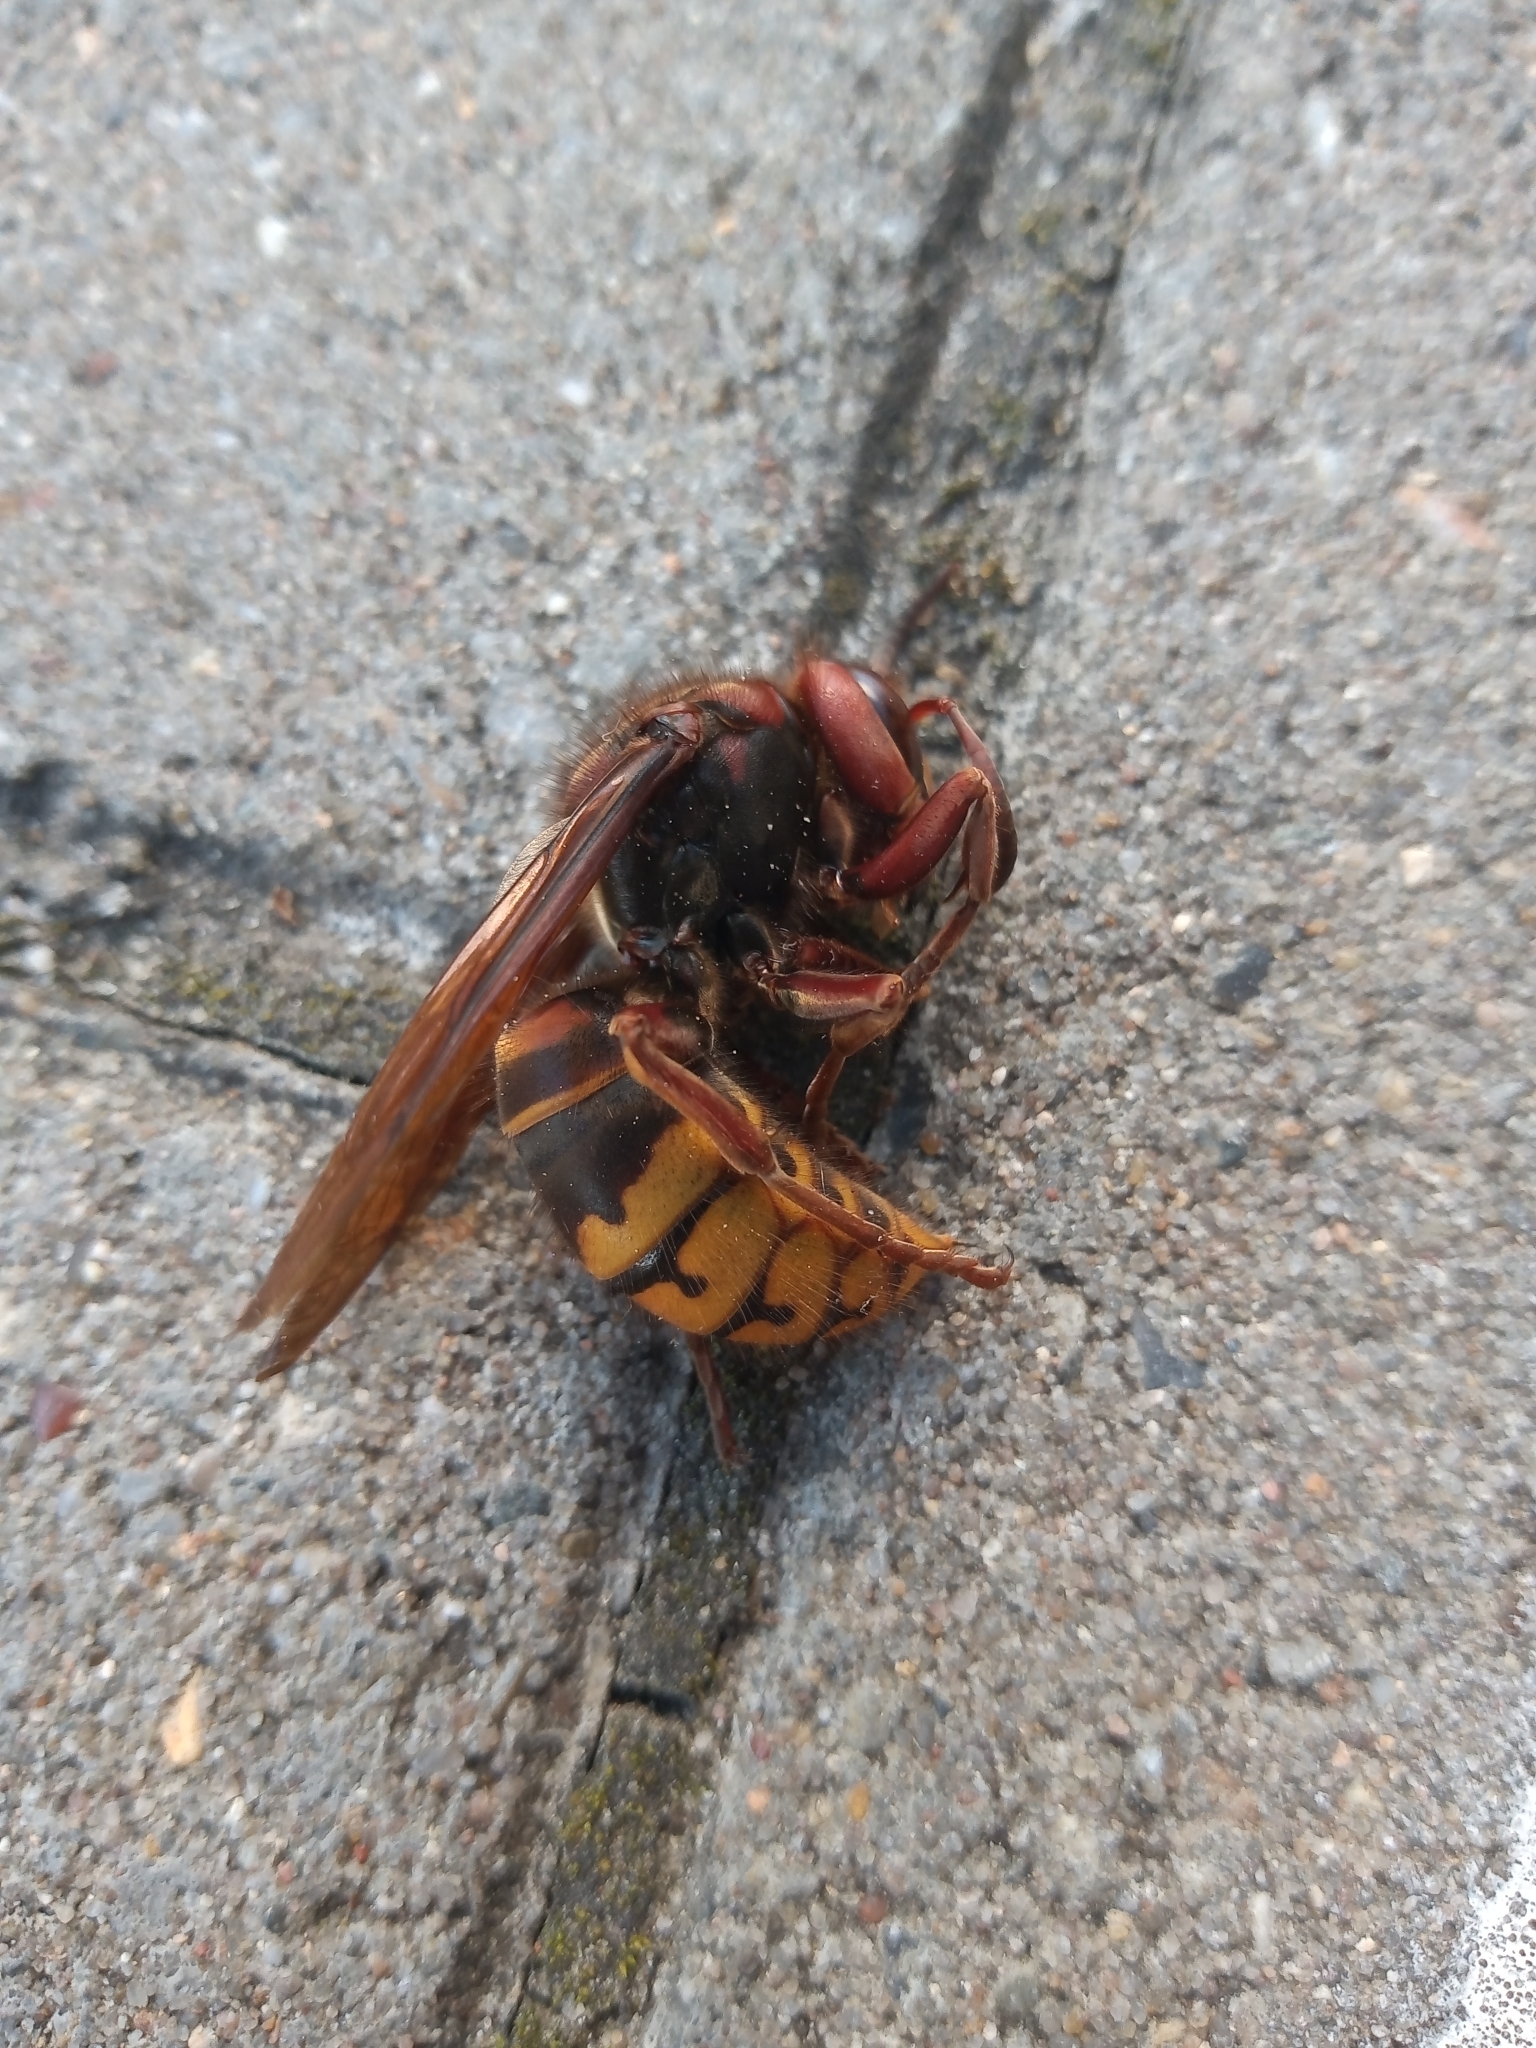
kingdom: Animalia
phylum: Arthropoda
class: Insecta
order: Hymenoptera
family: Vespidae
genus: Vespa
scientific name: Vespa crabro
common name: Hornet
